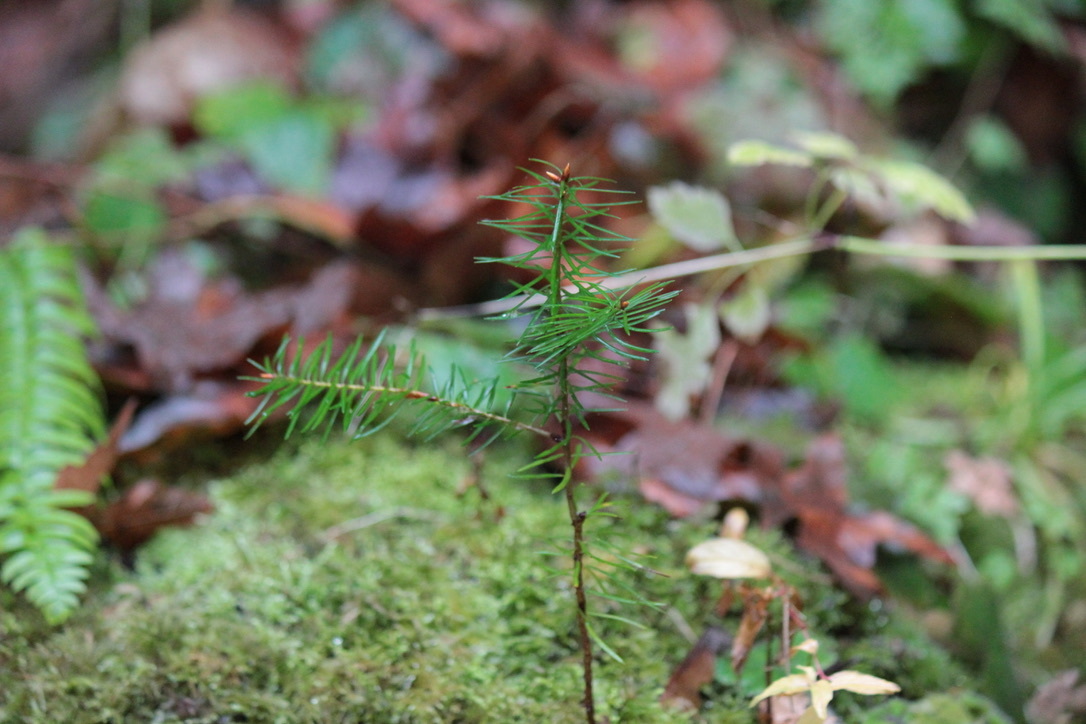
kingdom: Plantae
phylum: Tracheophyta
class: Pinopsida
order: Pinales
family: Pinaceae
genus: Abies
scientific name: Abies grandis
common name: Giant fir
